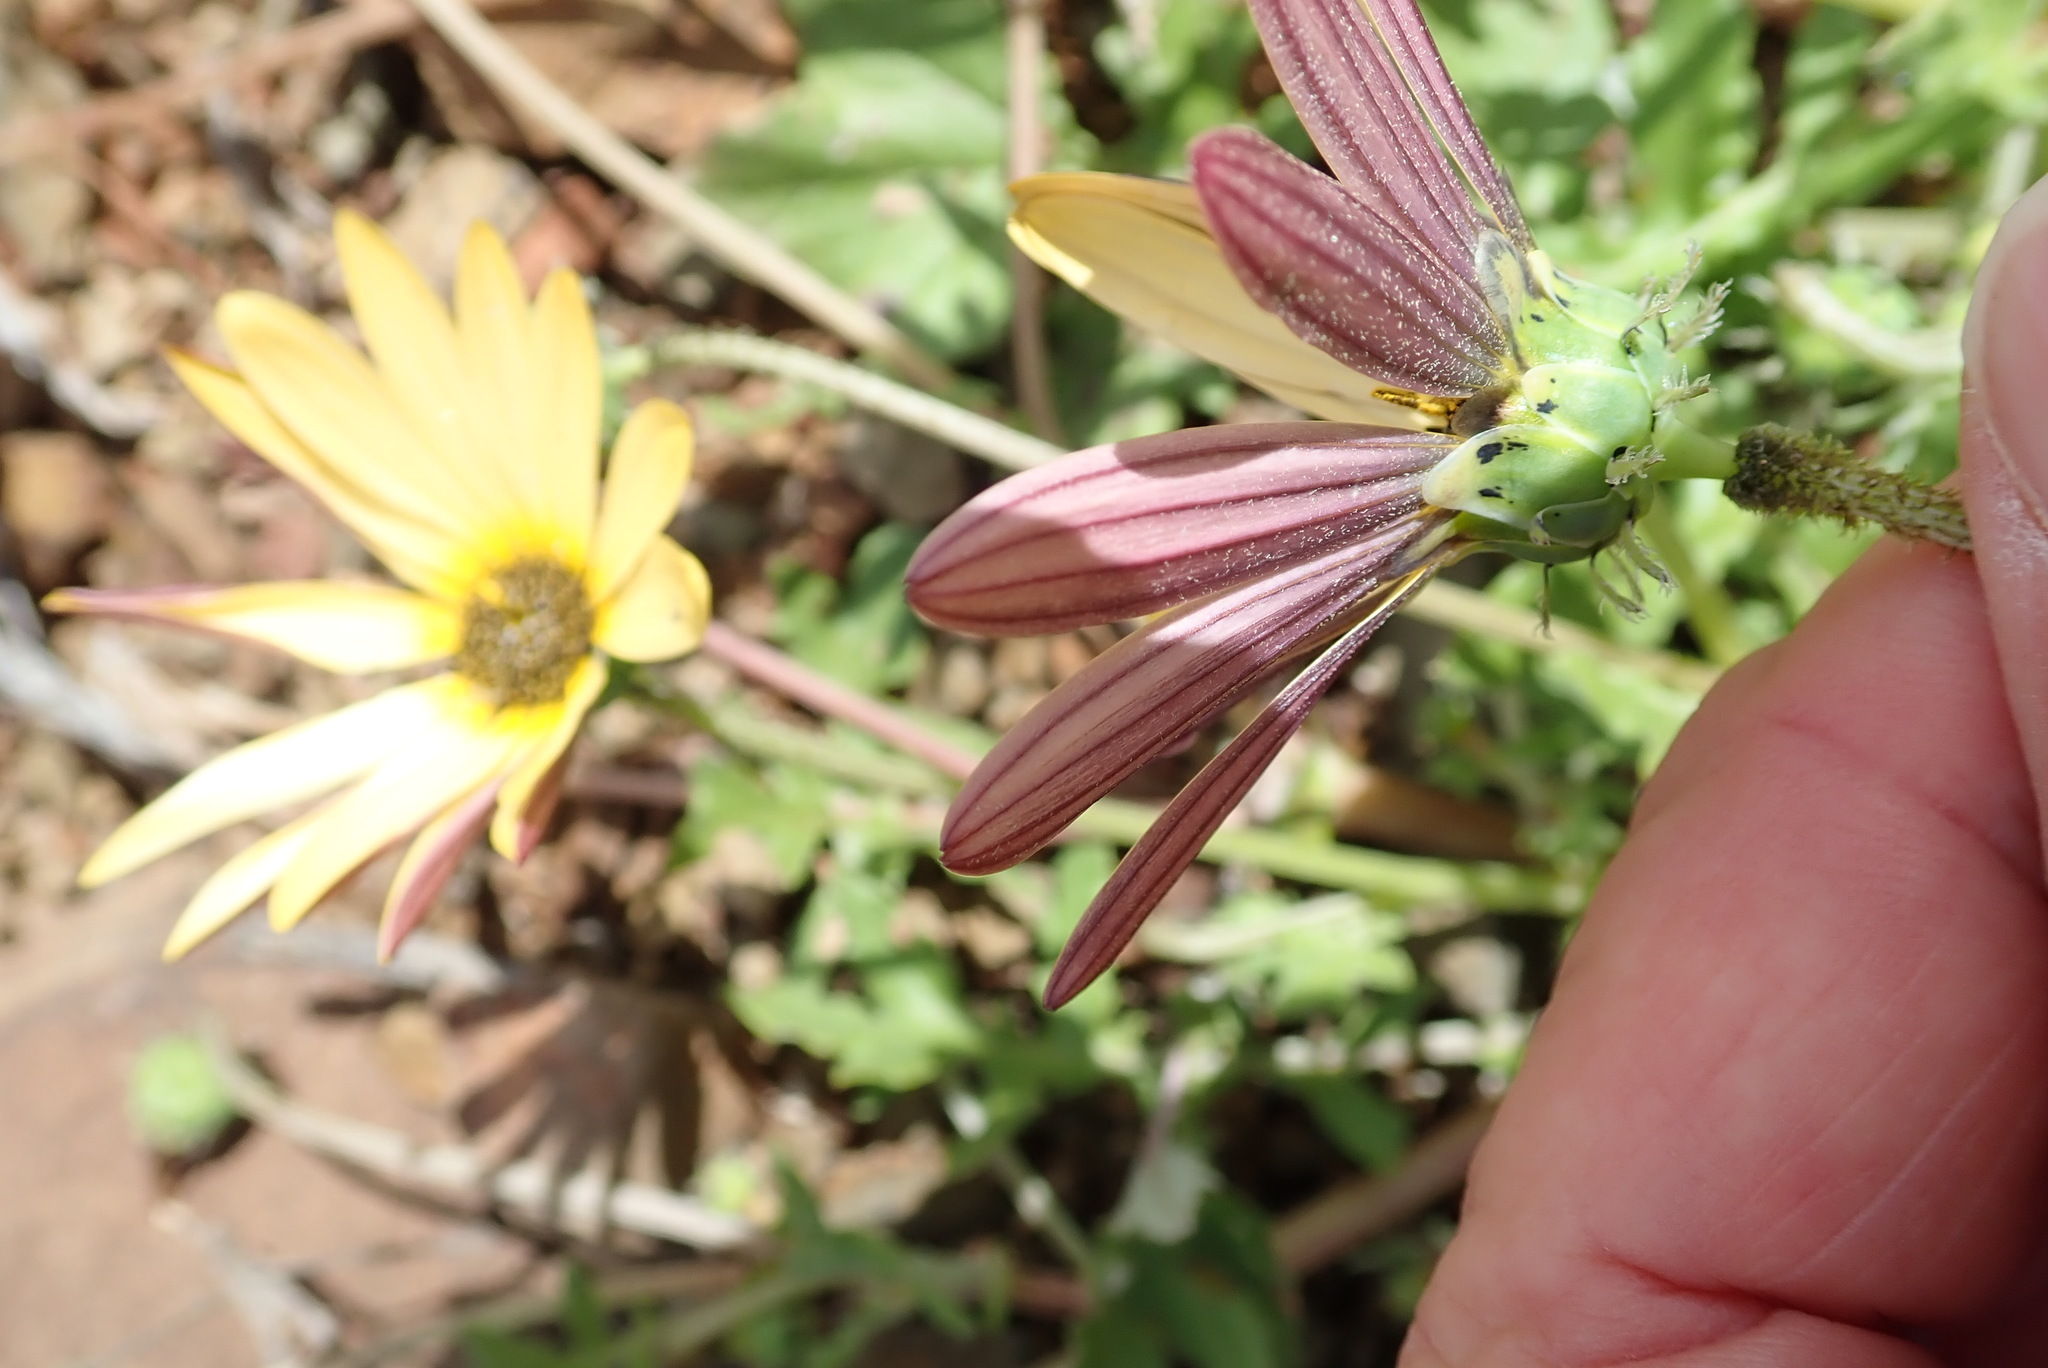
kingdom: Plantae
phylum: Tracheophyta
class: Magnoliopsida
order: Asterales
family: Asteraceae
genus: Arctotheca
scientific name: Arctotheca calendula
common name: Capeweed
